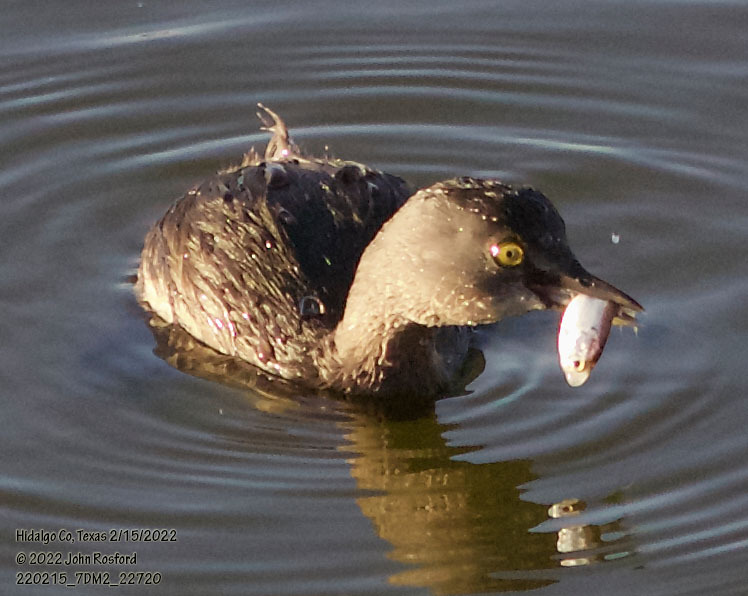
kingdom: Animalia
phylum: Chordata
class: Aves
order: Podicipediformes
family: Podicipedidae
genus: Tachybaptus
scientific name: Tachybaptus dominicus
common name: Least grebe
